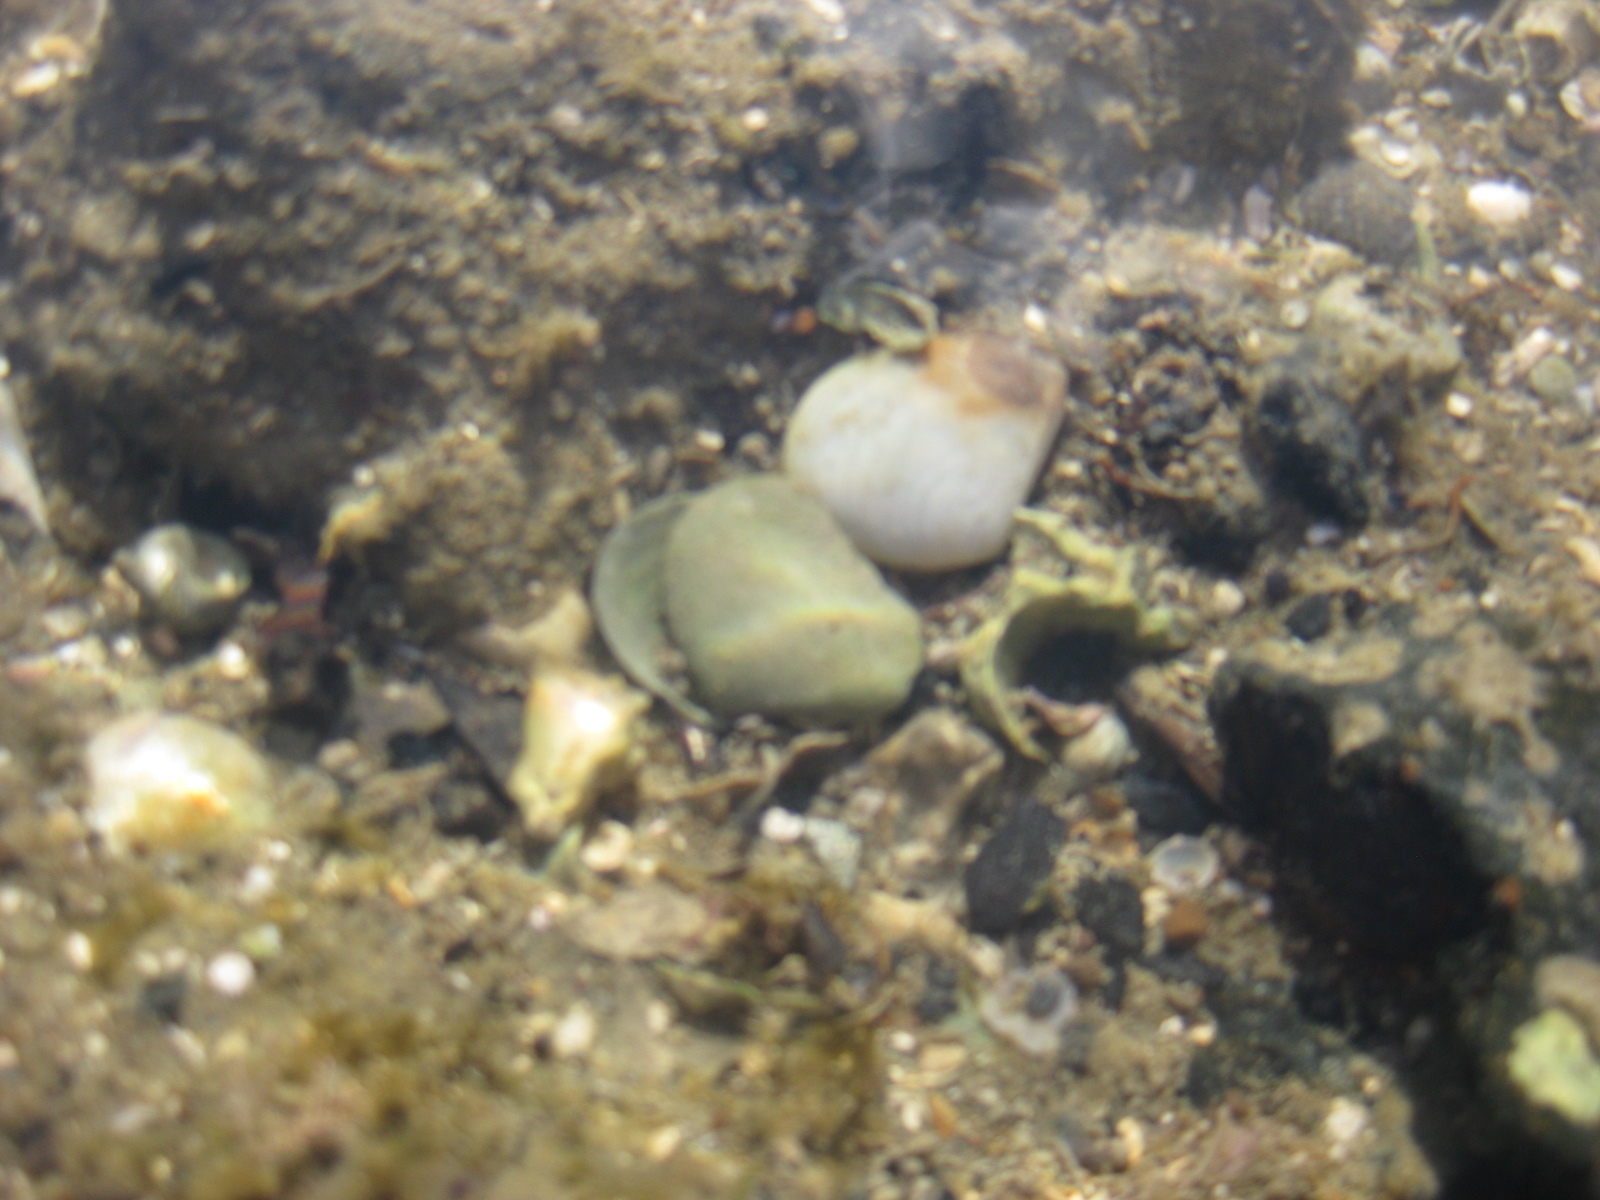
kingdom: Animalia
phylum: Mollusca
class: Bivalvia
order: Cardiida
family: Tellinidae
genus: Macomona
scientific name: Macomona liliana
